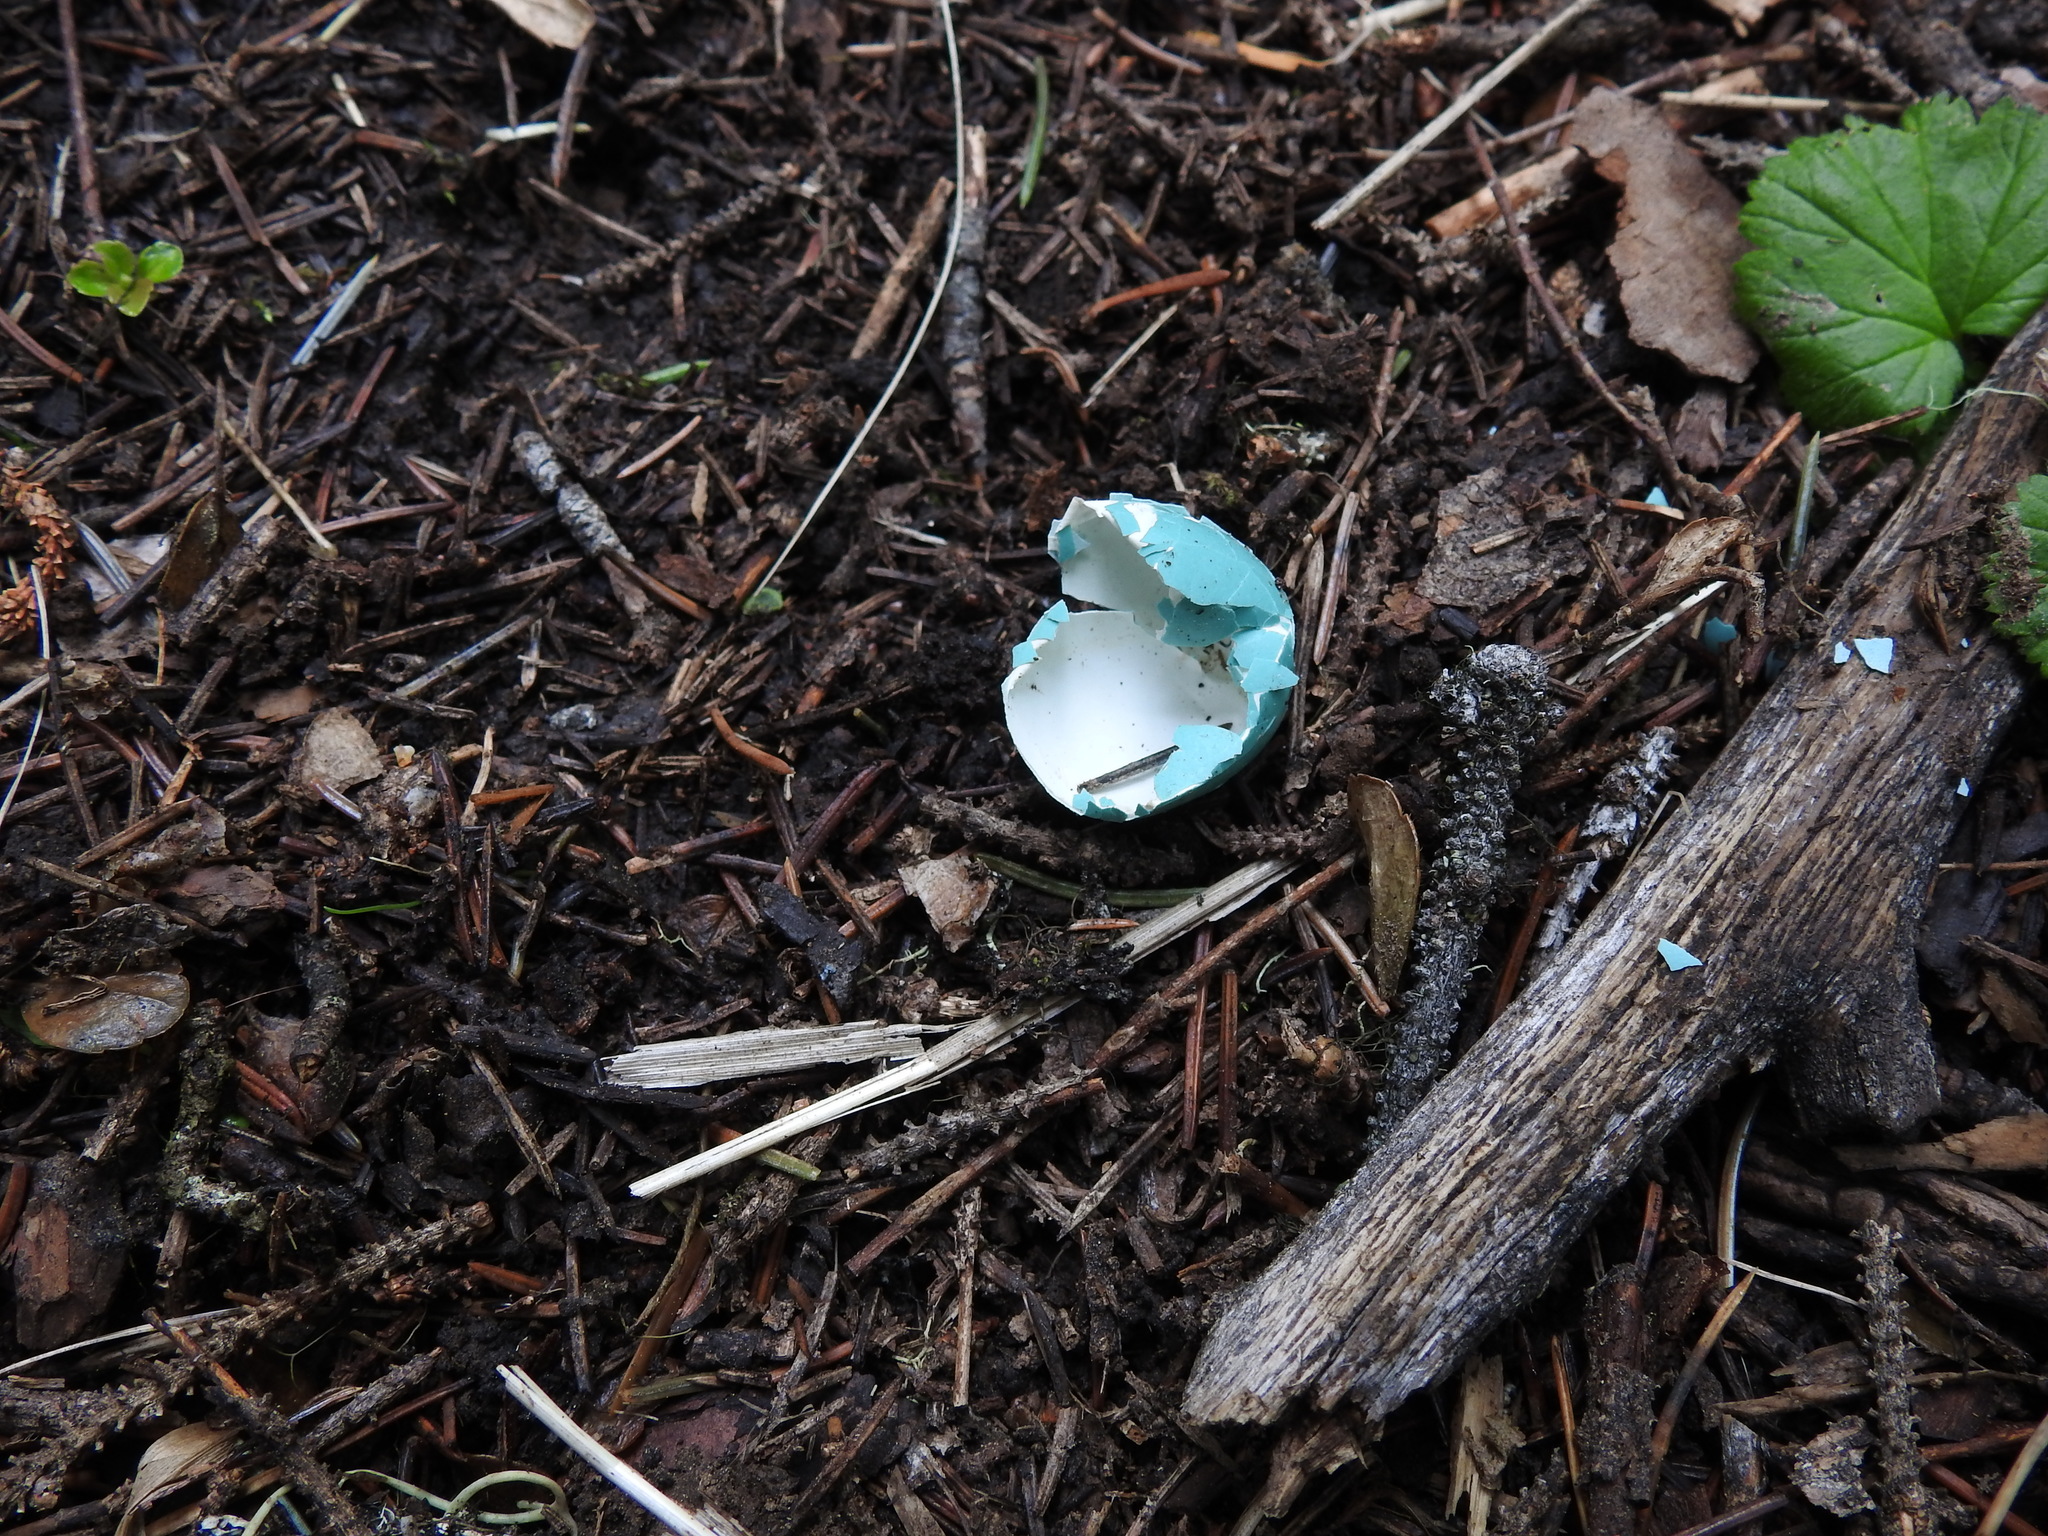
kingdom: Animalia
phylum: Chordata
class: Aves
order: Passeriformes
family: Turdidae
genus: Turdus
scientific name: Turdus migratorius
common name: American robin
